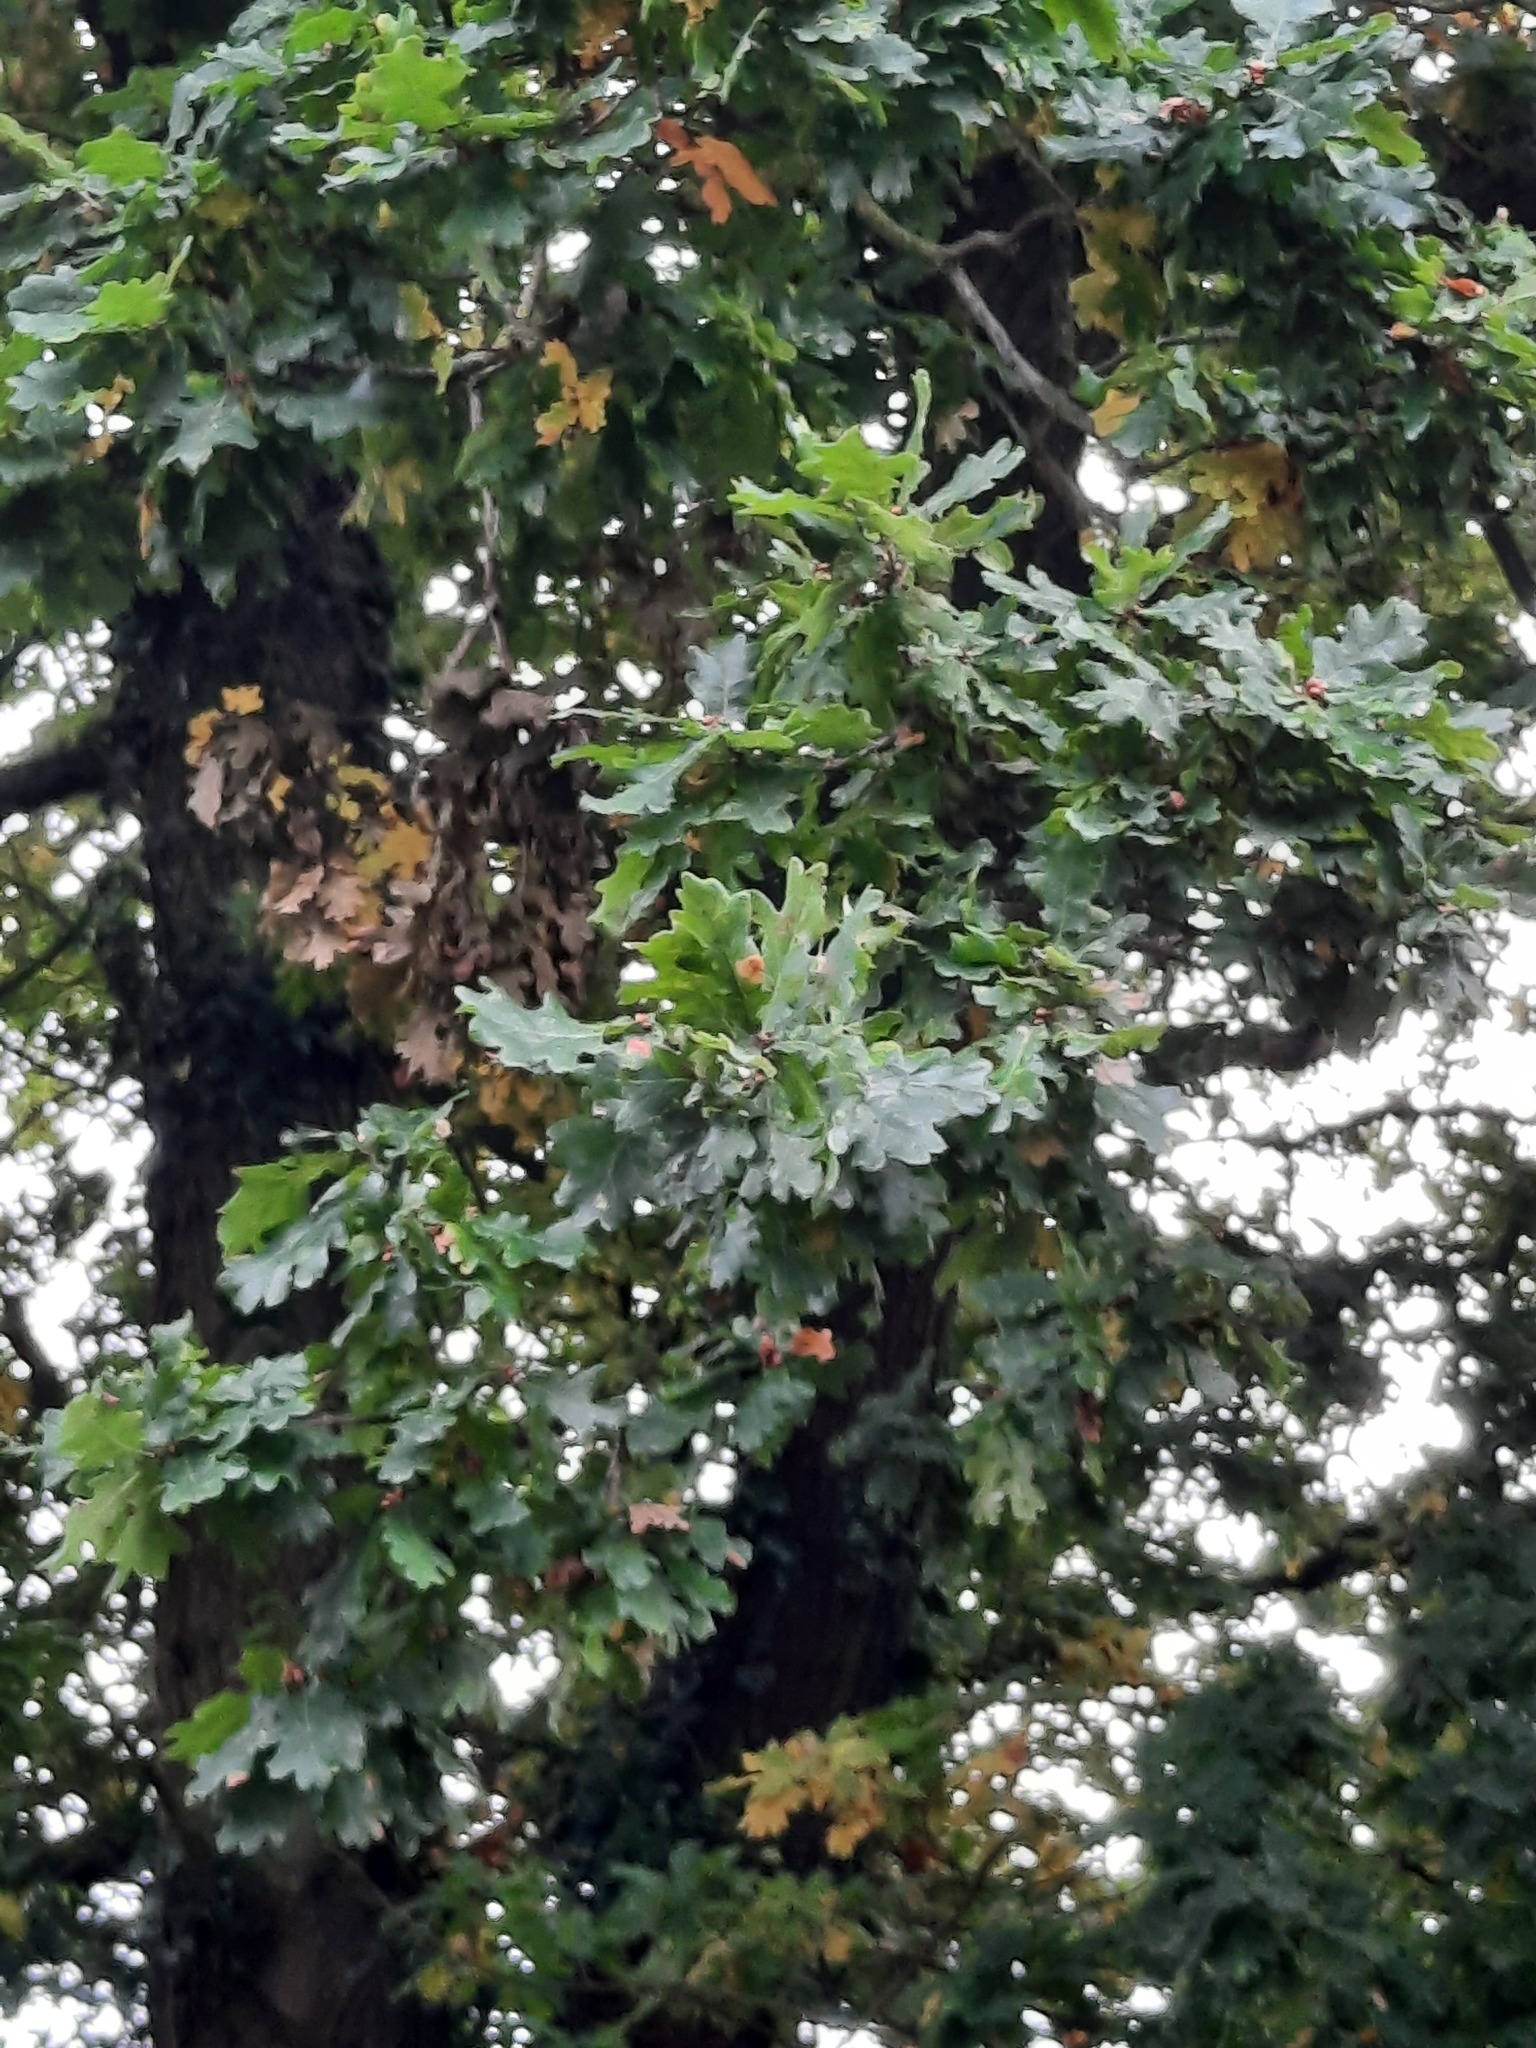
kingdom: Plantae
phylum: Tracheophyta
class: Magnoliopsida
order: Fagales
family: Fagaceae
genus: Quercus
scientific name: Quercus robur
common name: Pedunculate oak
